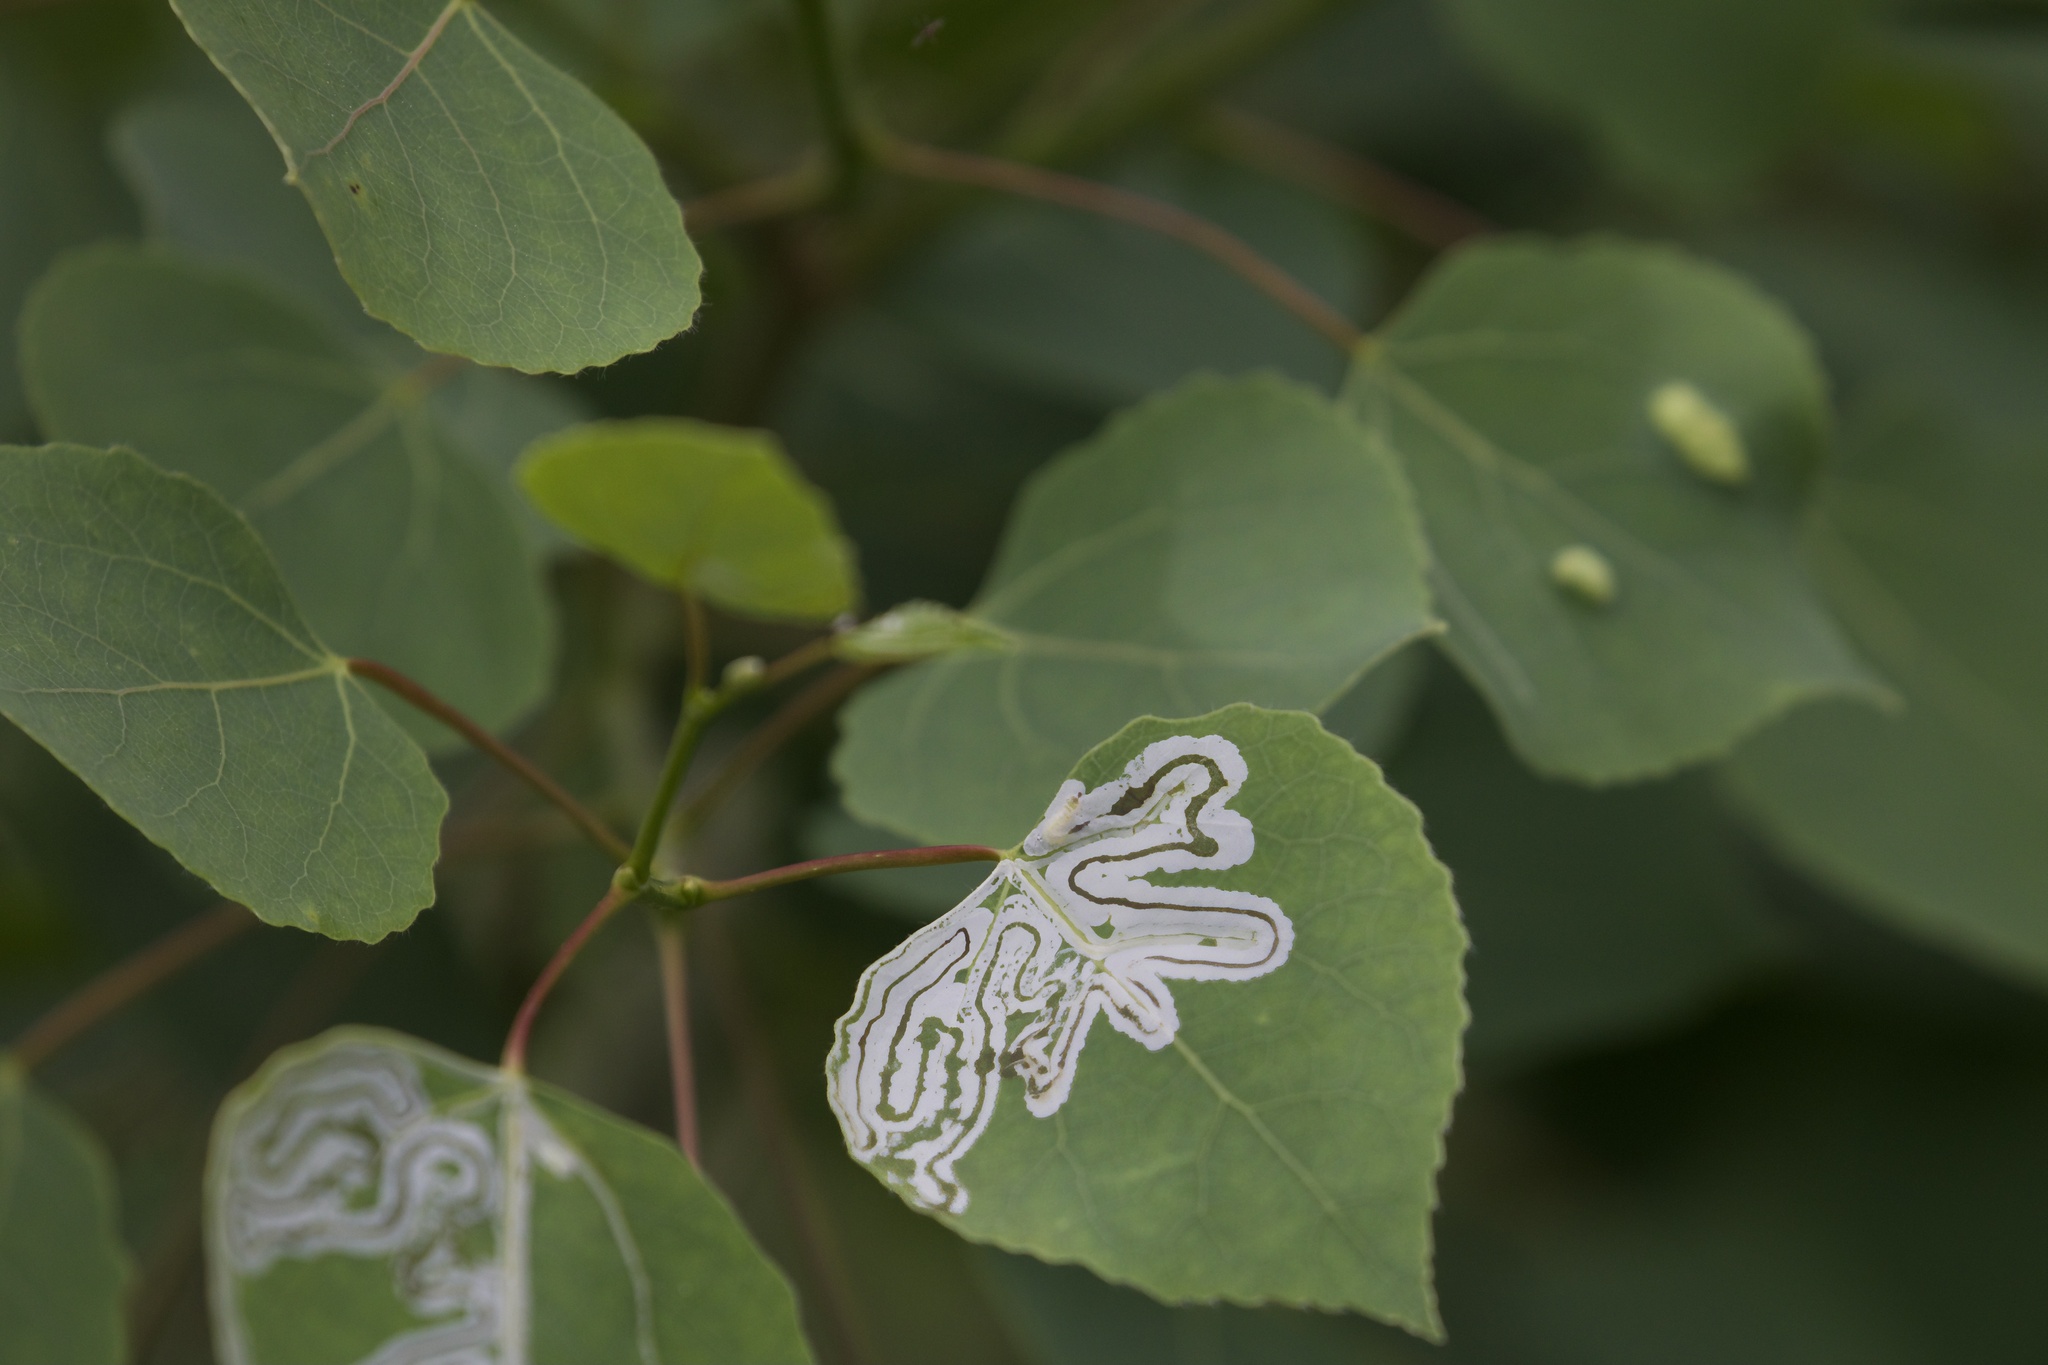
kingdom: Animalia
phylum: Arthropoda
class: Insecta
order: Lepidoptera
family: Gracillariidae
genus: Phyllocnistis
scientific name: Phyllocnistis populiella
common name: Aspen serpentine leafminer moth
